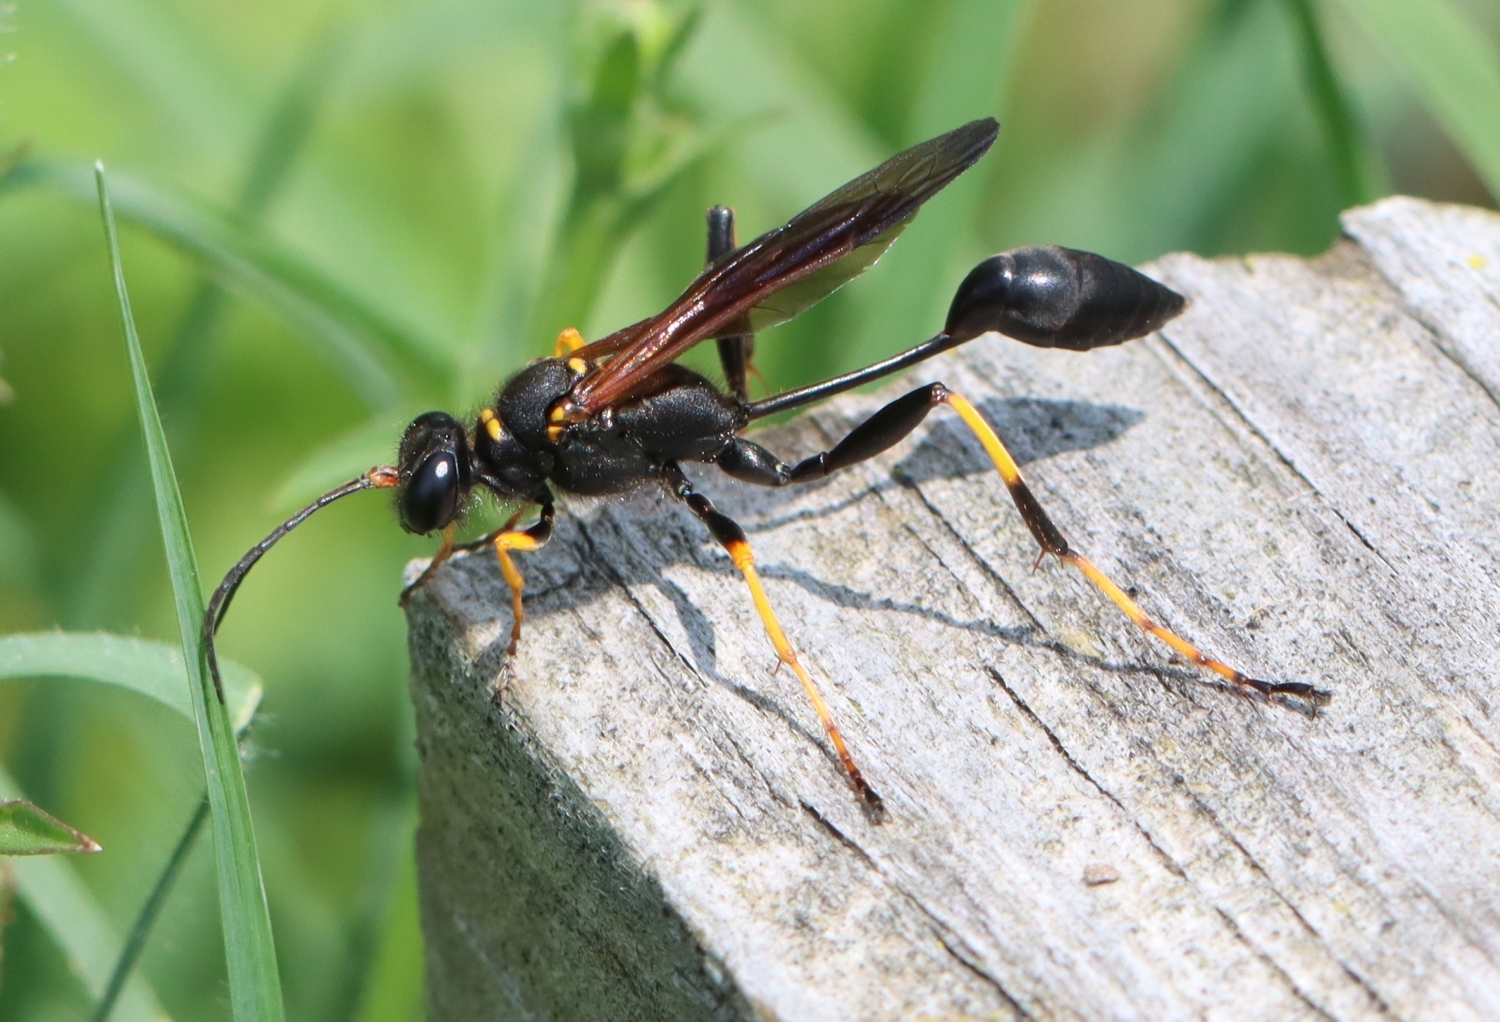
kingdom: Animalia
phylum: Arthropoda
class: Insecta
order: Hymenoptera
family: Sphecidae
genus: Sceliphron
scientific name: Sceliphron caementarium
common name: Mud dauber
